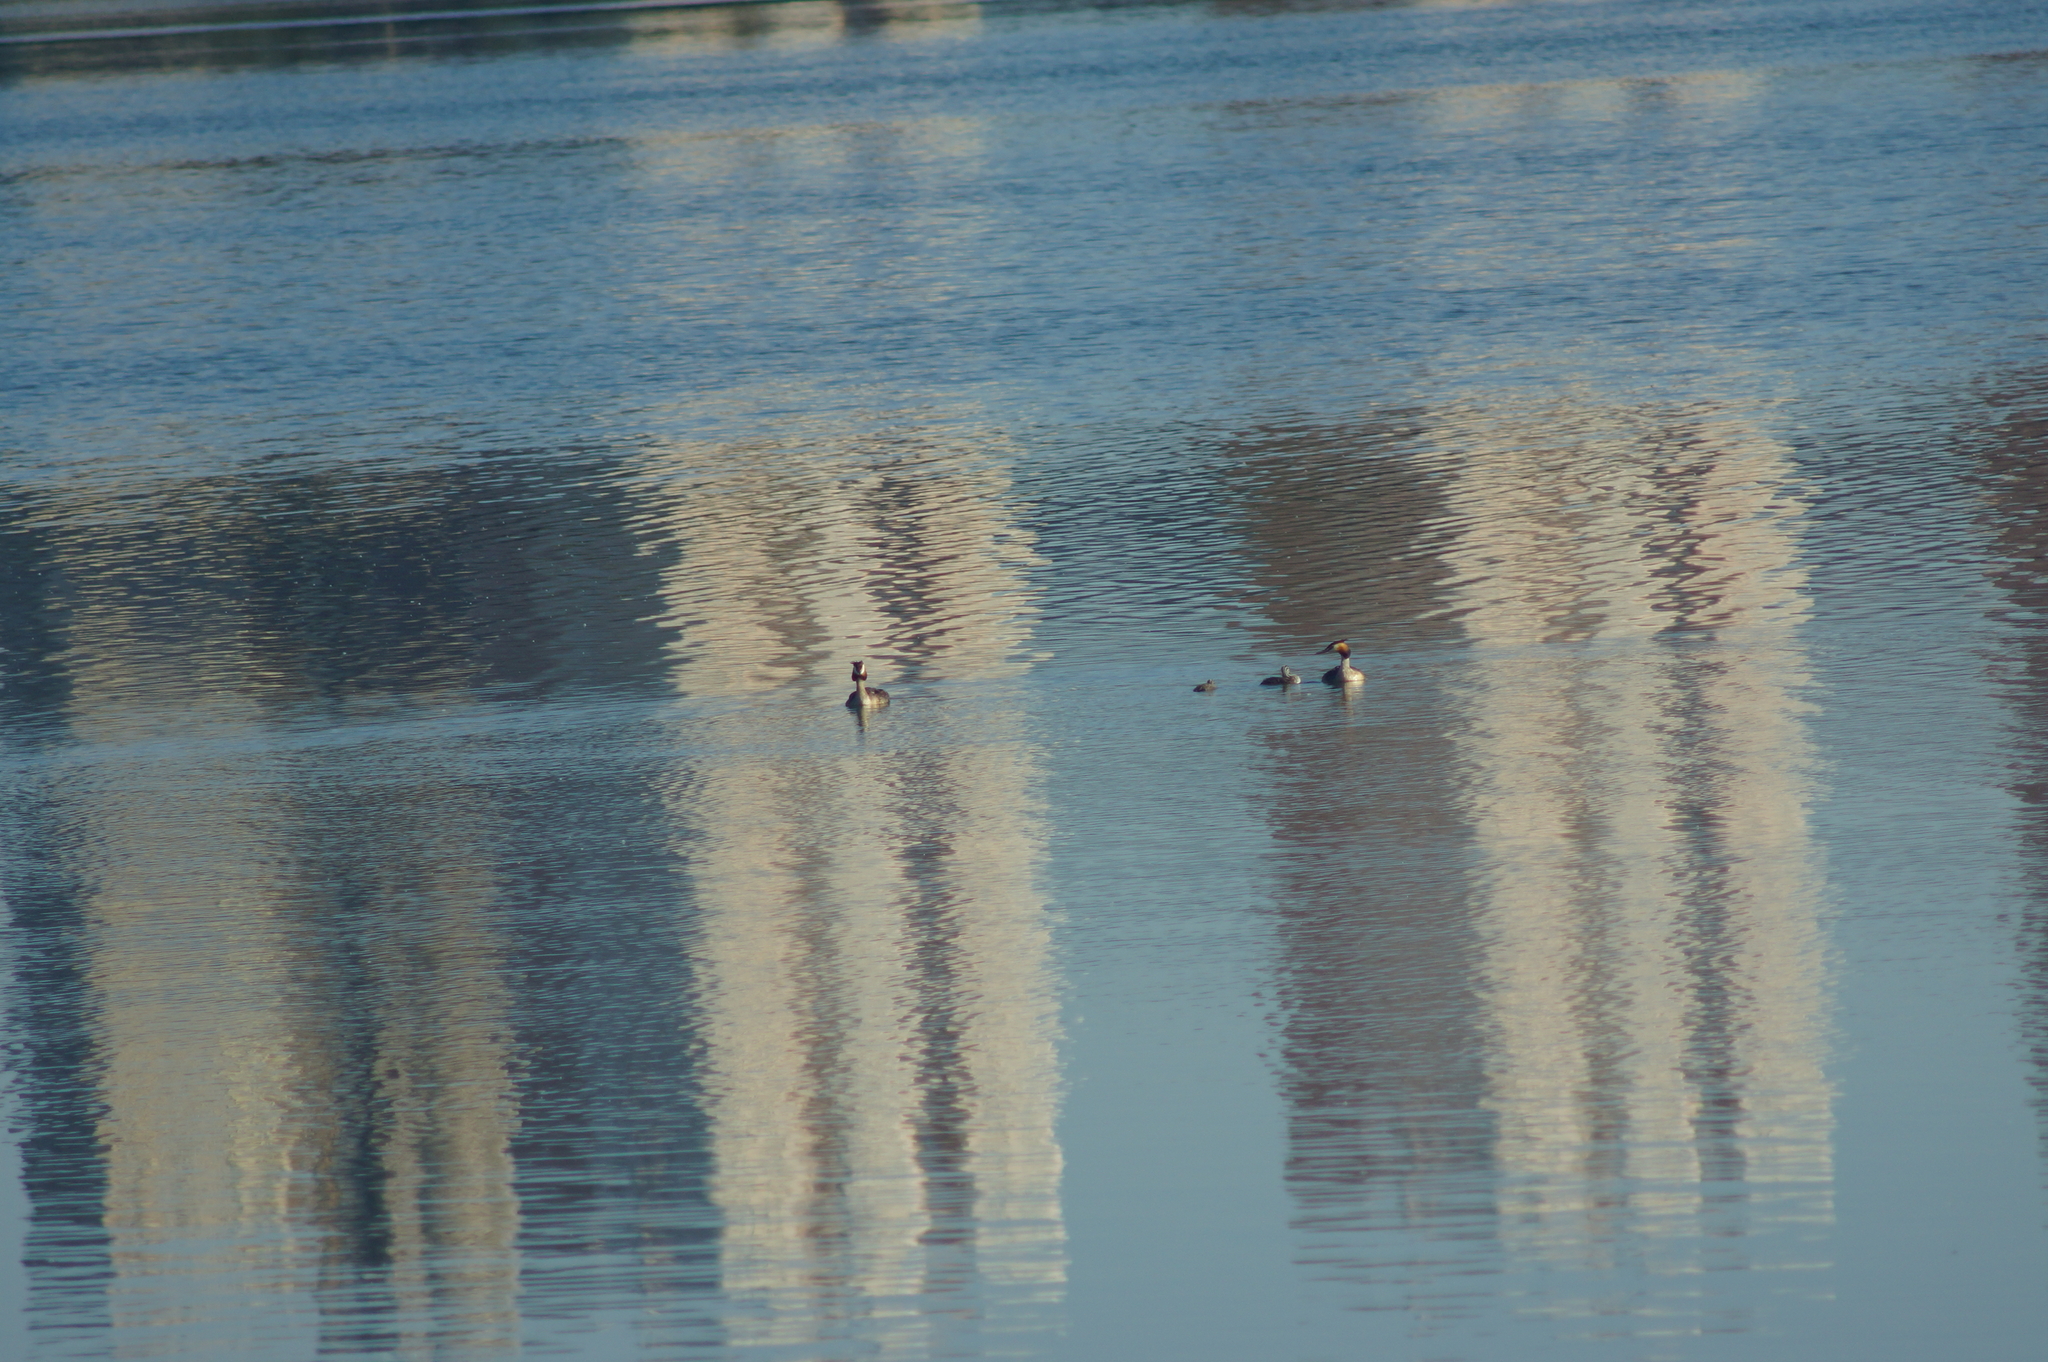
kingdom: Animalia
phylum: Chordata
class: Aves
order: Podicipediformes
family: Podicipedidae
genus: Podiceps
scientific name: Podiceps cristatus
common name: Great crested grebe
